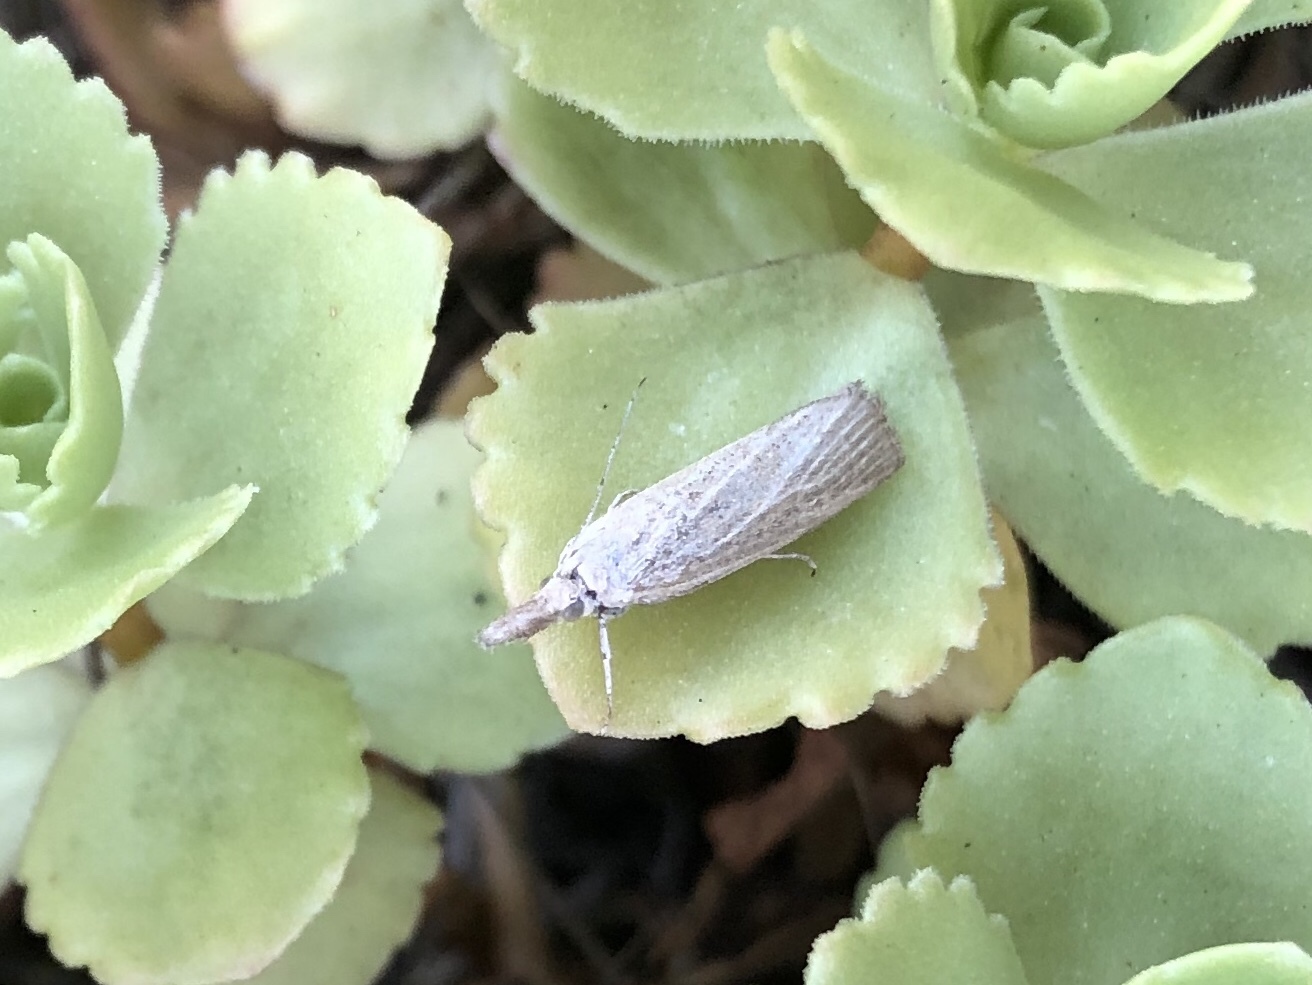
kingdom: Animalia
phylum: Arthropoda
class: Insecta
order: Lepidoptera
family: Crambidae
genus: Pediasia
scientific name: Pediasia luteella
